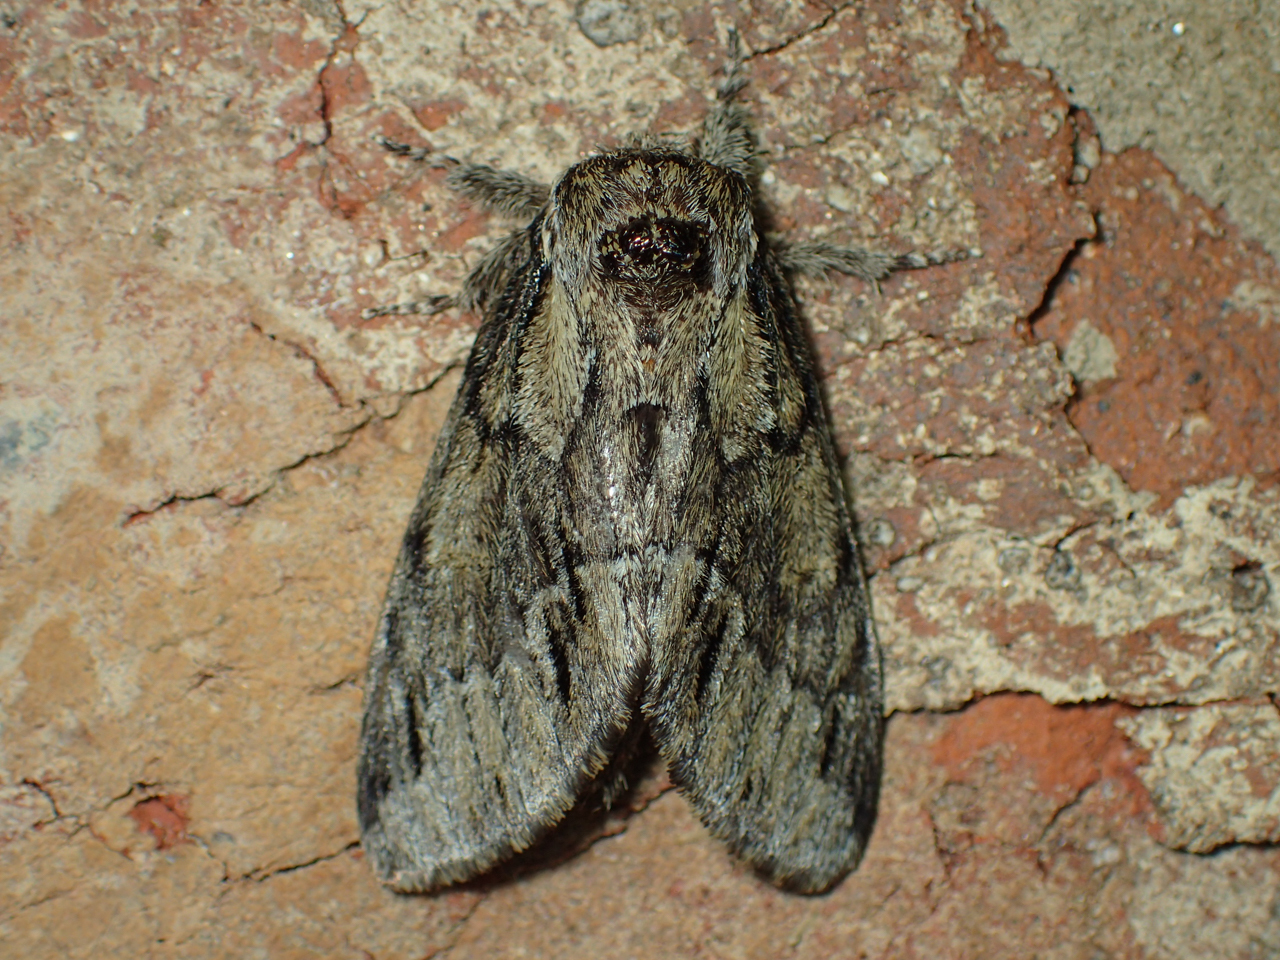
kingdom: Animalia
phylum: Arthropoda
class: Insecta
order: Lepidoptera
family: Notodontidae
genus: Paraeschra
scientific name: Paraeschra georgica
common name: Georgian prominent
